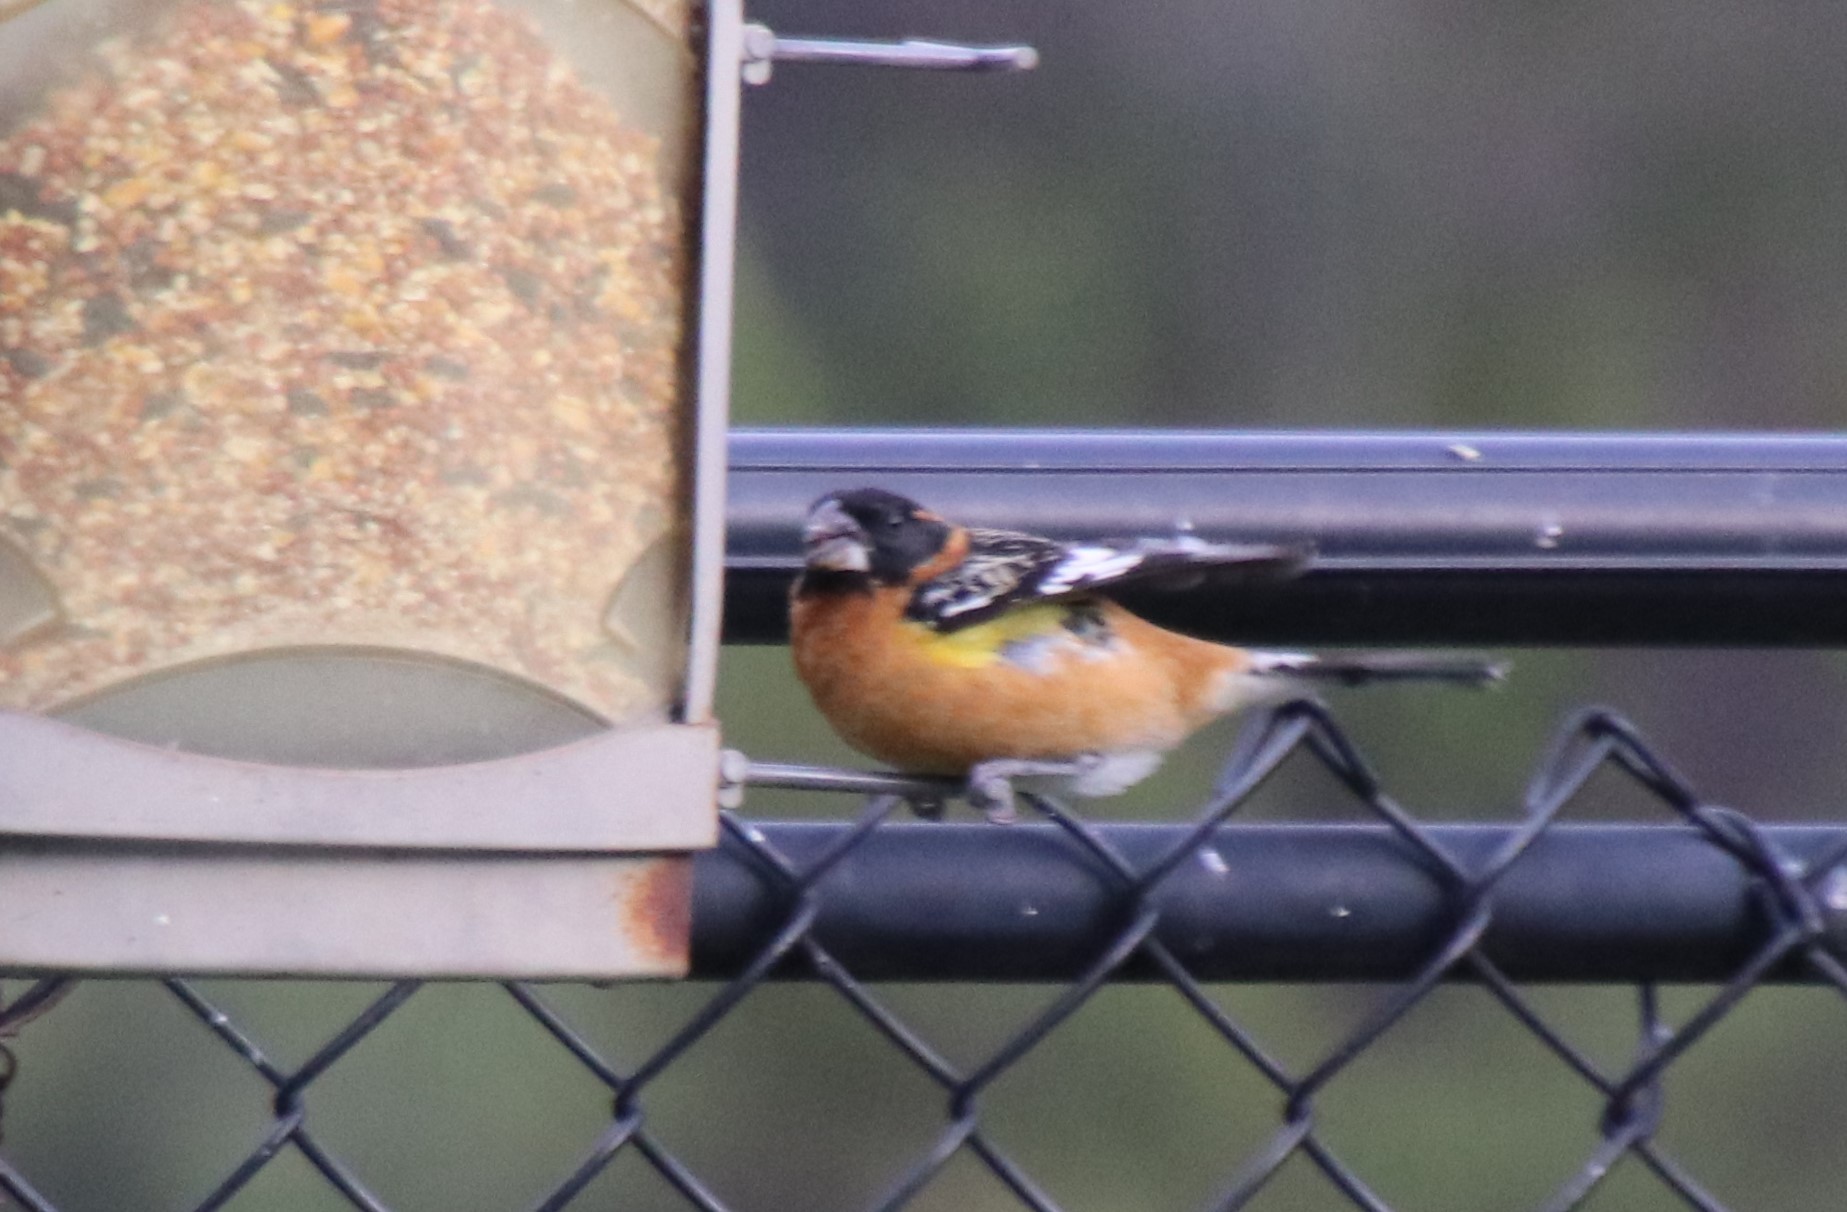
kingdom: Animalia
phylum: Chordata
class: Aves
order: Passeriformes
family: Cardinalidae
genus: Pheucticus
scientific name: Pheucticus melanocephalus
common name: Black-headed grosbeak
